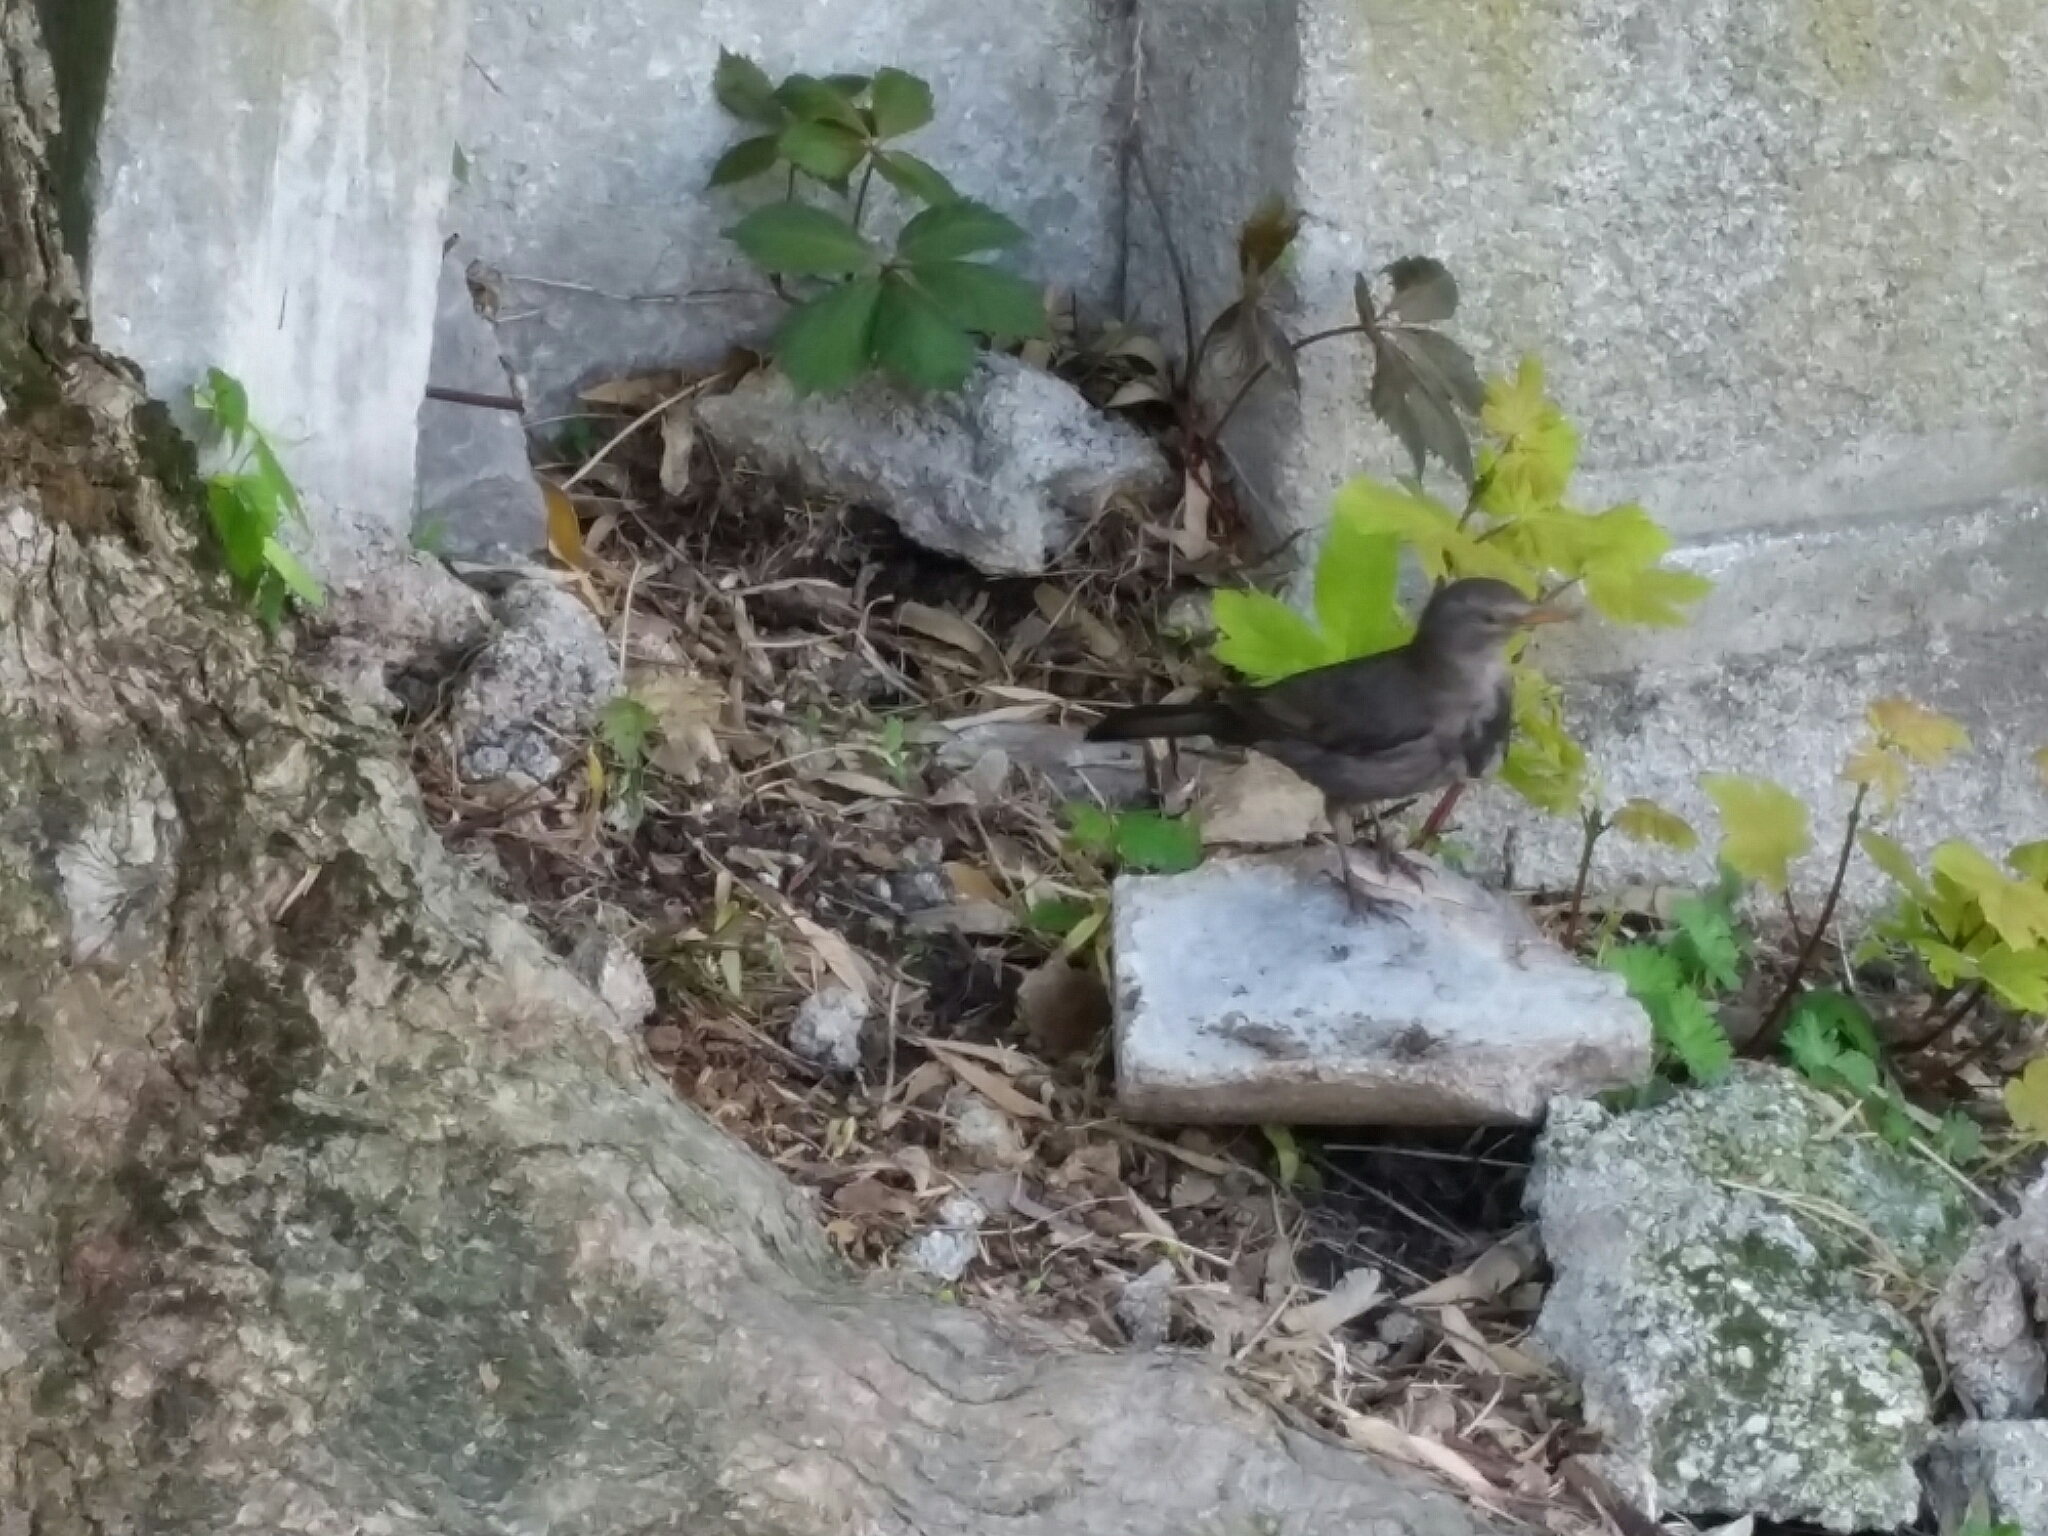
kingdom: Animalia
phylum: Chordata
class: Aves
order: Passeriformes
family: Turdidae
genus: Turdus
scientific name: Turdus merula
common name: Common blackbird
